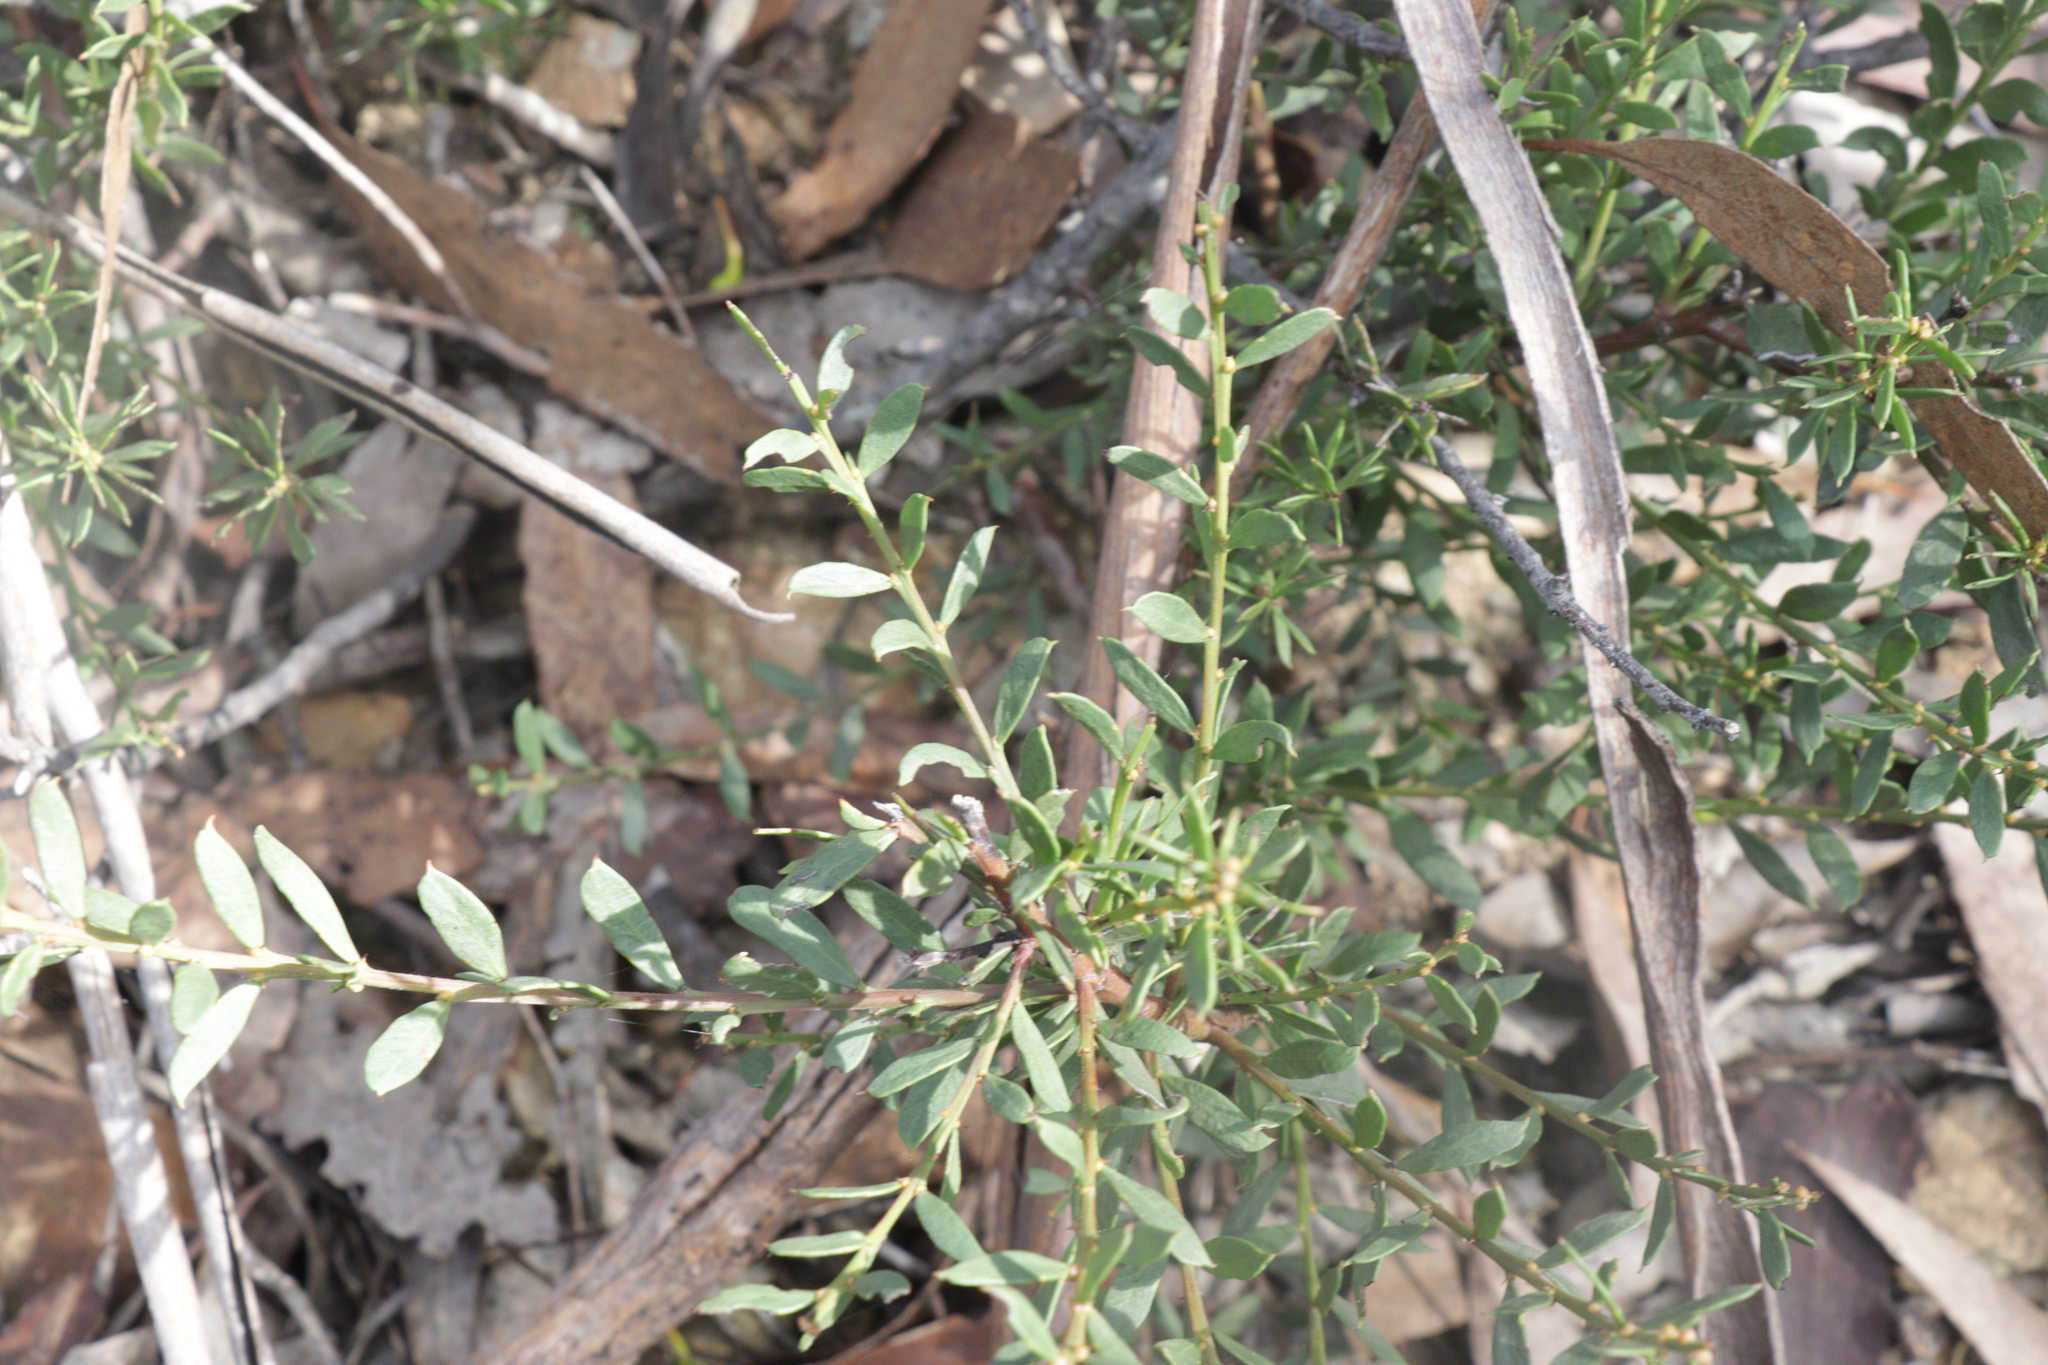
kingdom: Plantae
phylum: Tracheophyta
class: Magnoliopsida
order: Fabales
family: Fabaceae
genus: Acacia
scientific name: Acacia acinacea
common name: Gold-dust acacia
